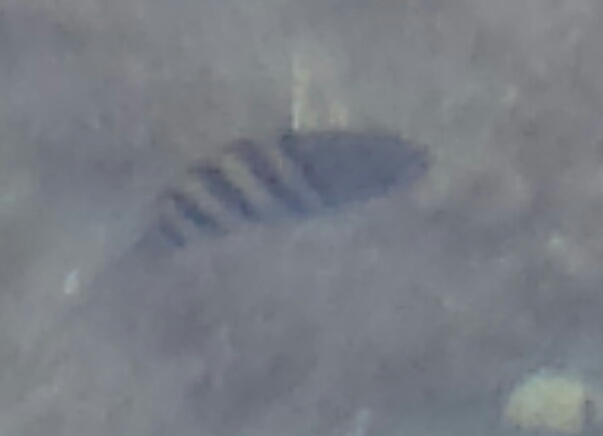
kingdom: Animalia
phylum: Chordata
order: Perciformes
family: Pomacentridae
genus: Abudefduf
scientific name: Abudefduf saxatilis
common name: Sergeant major
